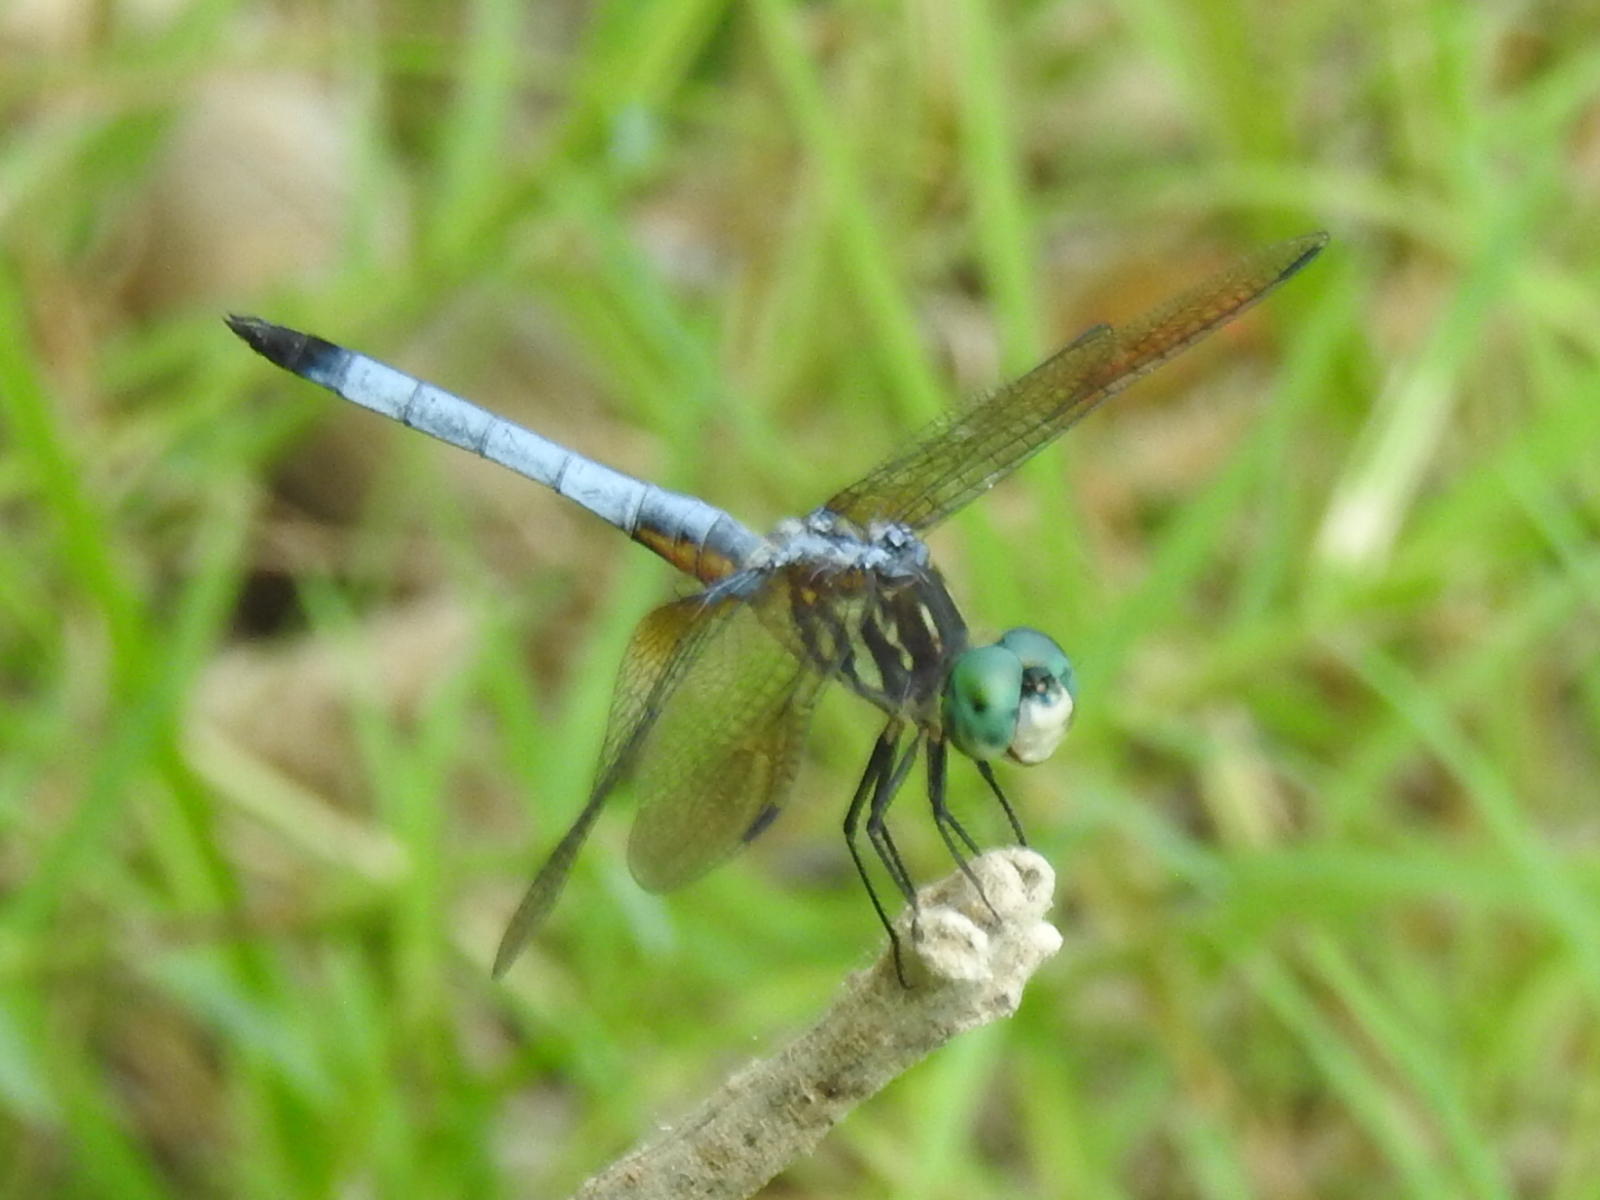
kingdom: Animalia
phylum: Arthropoda
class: Insecta
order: Odonata
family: Libellulidae
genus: Pachydiplax
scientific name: Pachydiplax longipennis
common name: Blue dasher
